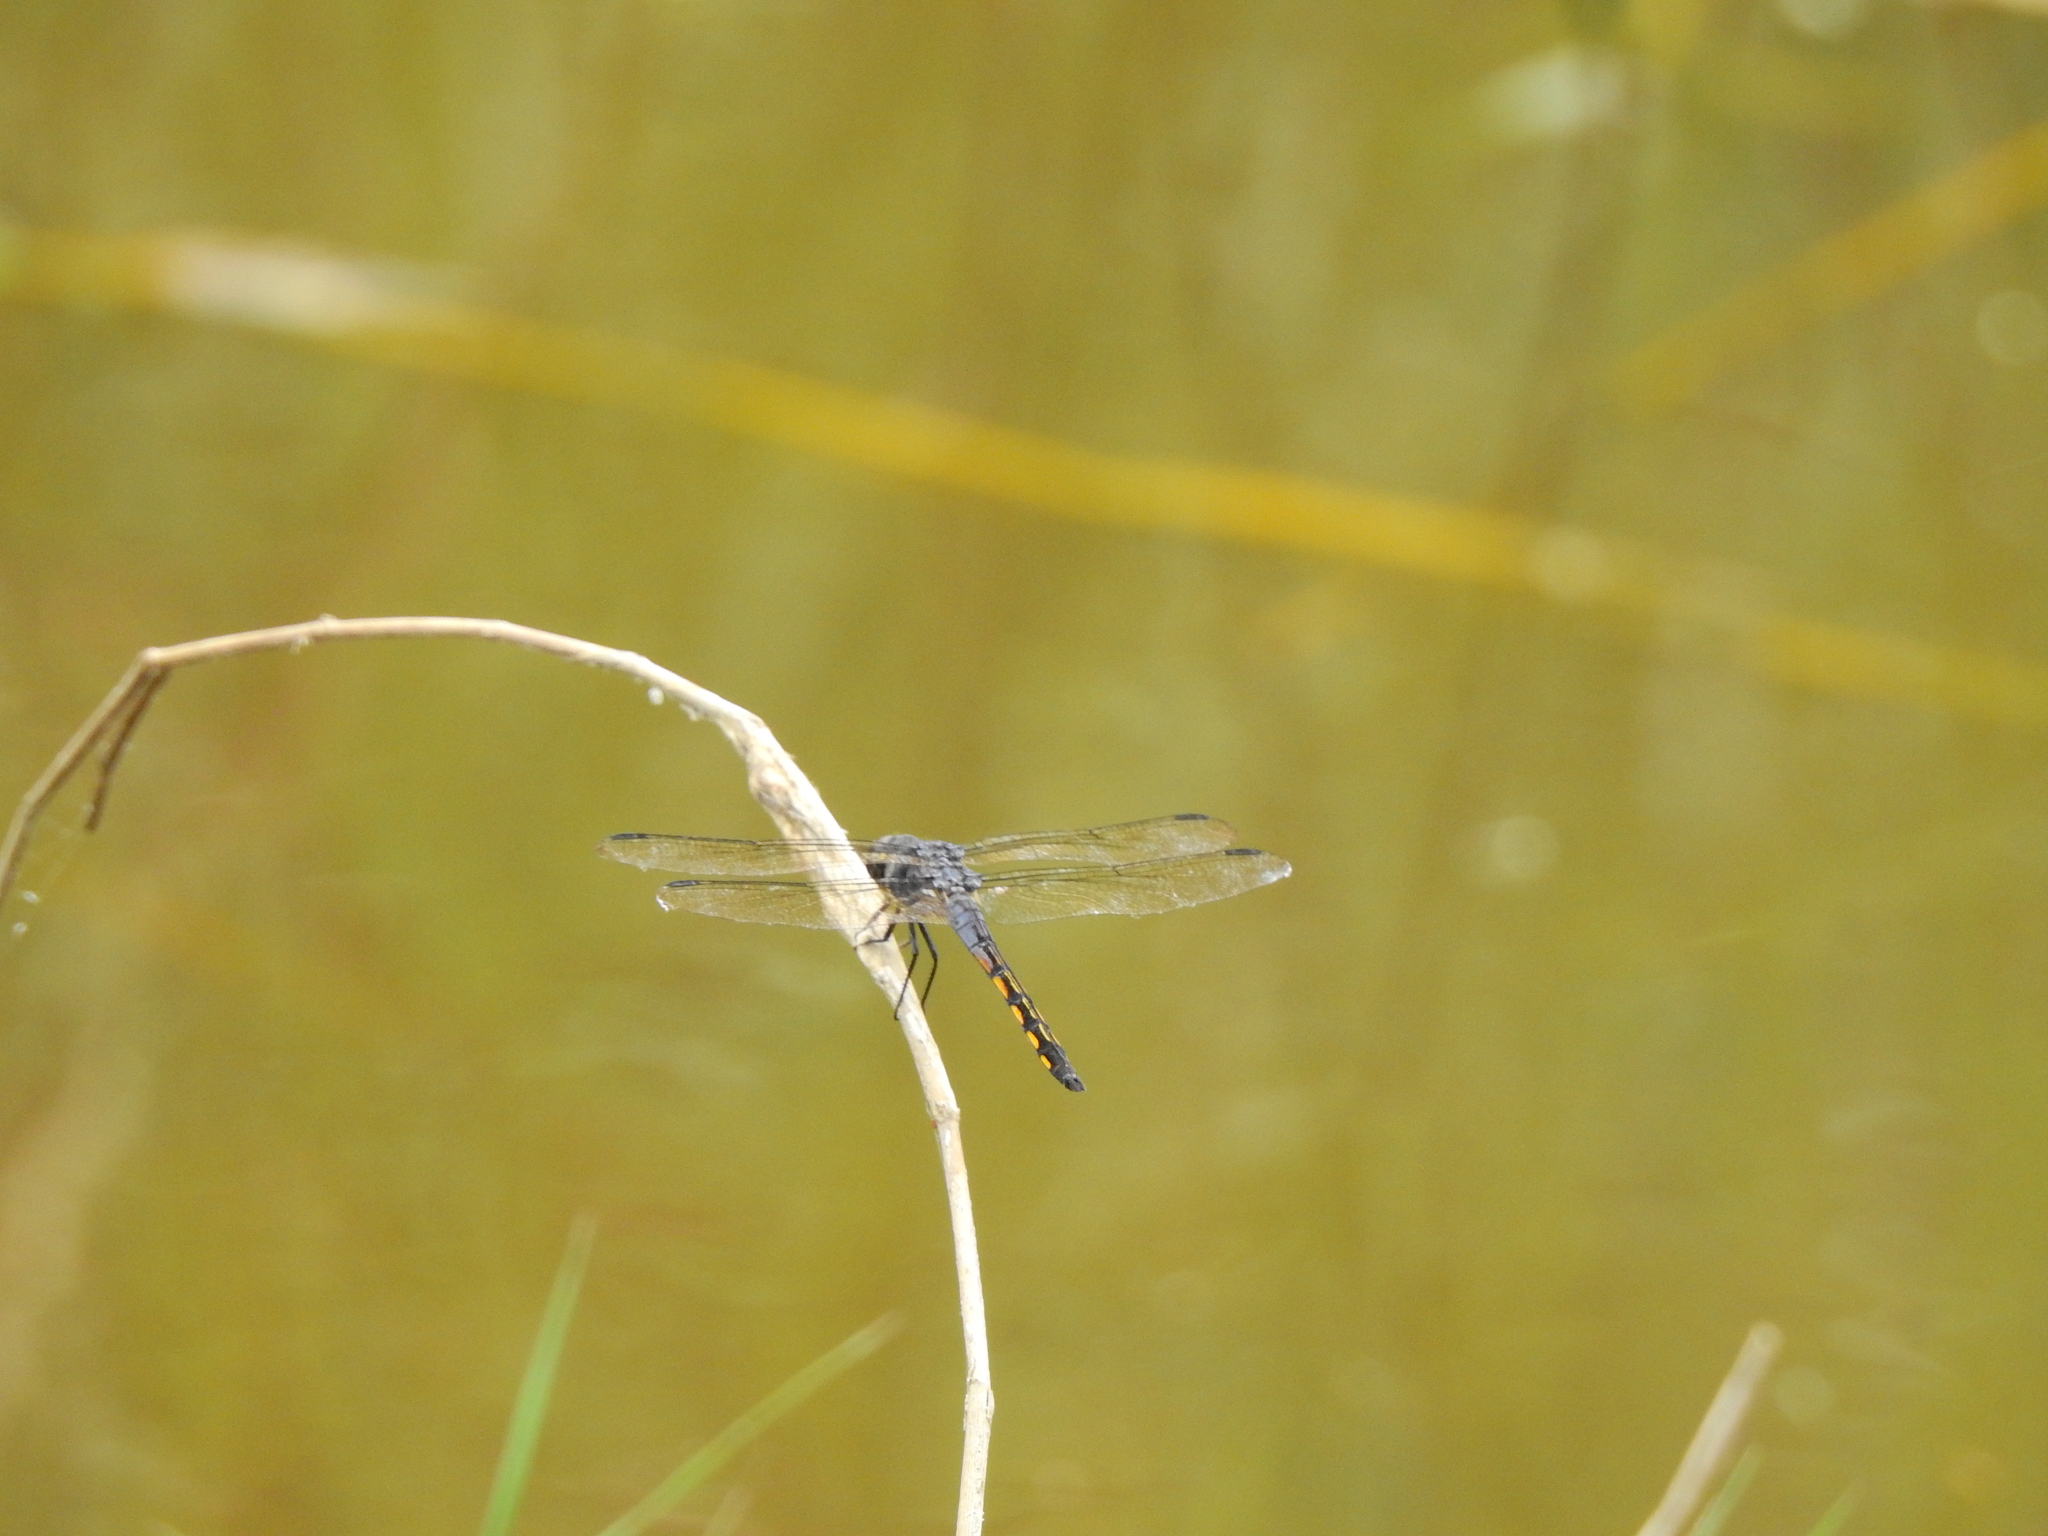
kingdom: Animalia
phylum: Arthropoda
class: Insecta
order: Odonata
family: Libellulidae
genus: Potamarcha
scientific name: Potamarcha congener
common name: Blue chaser
